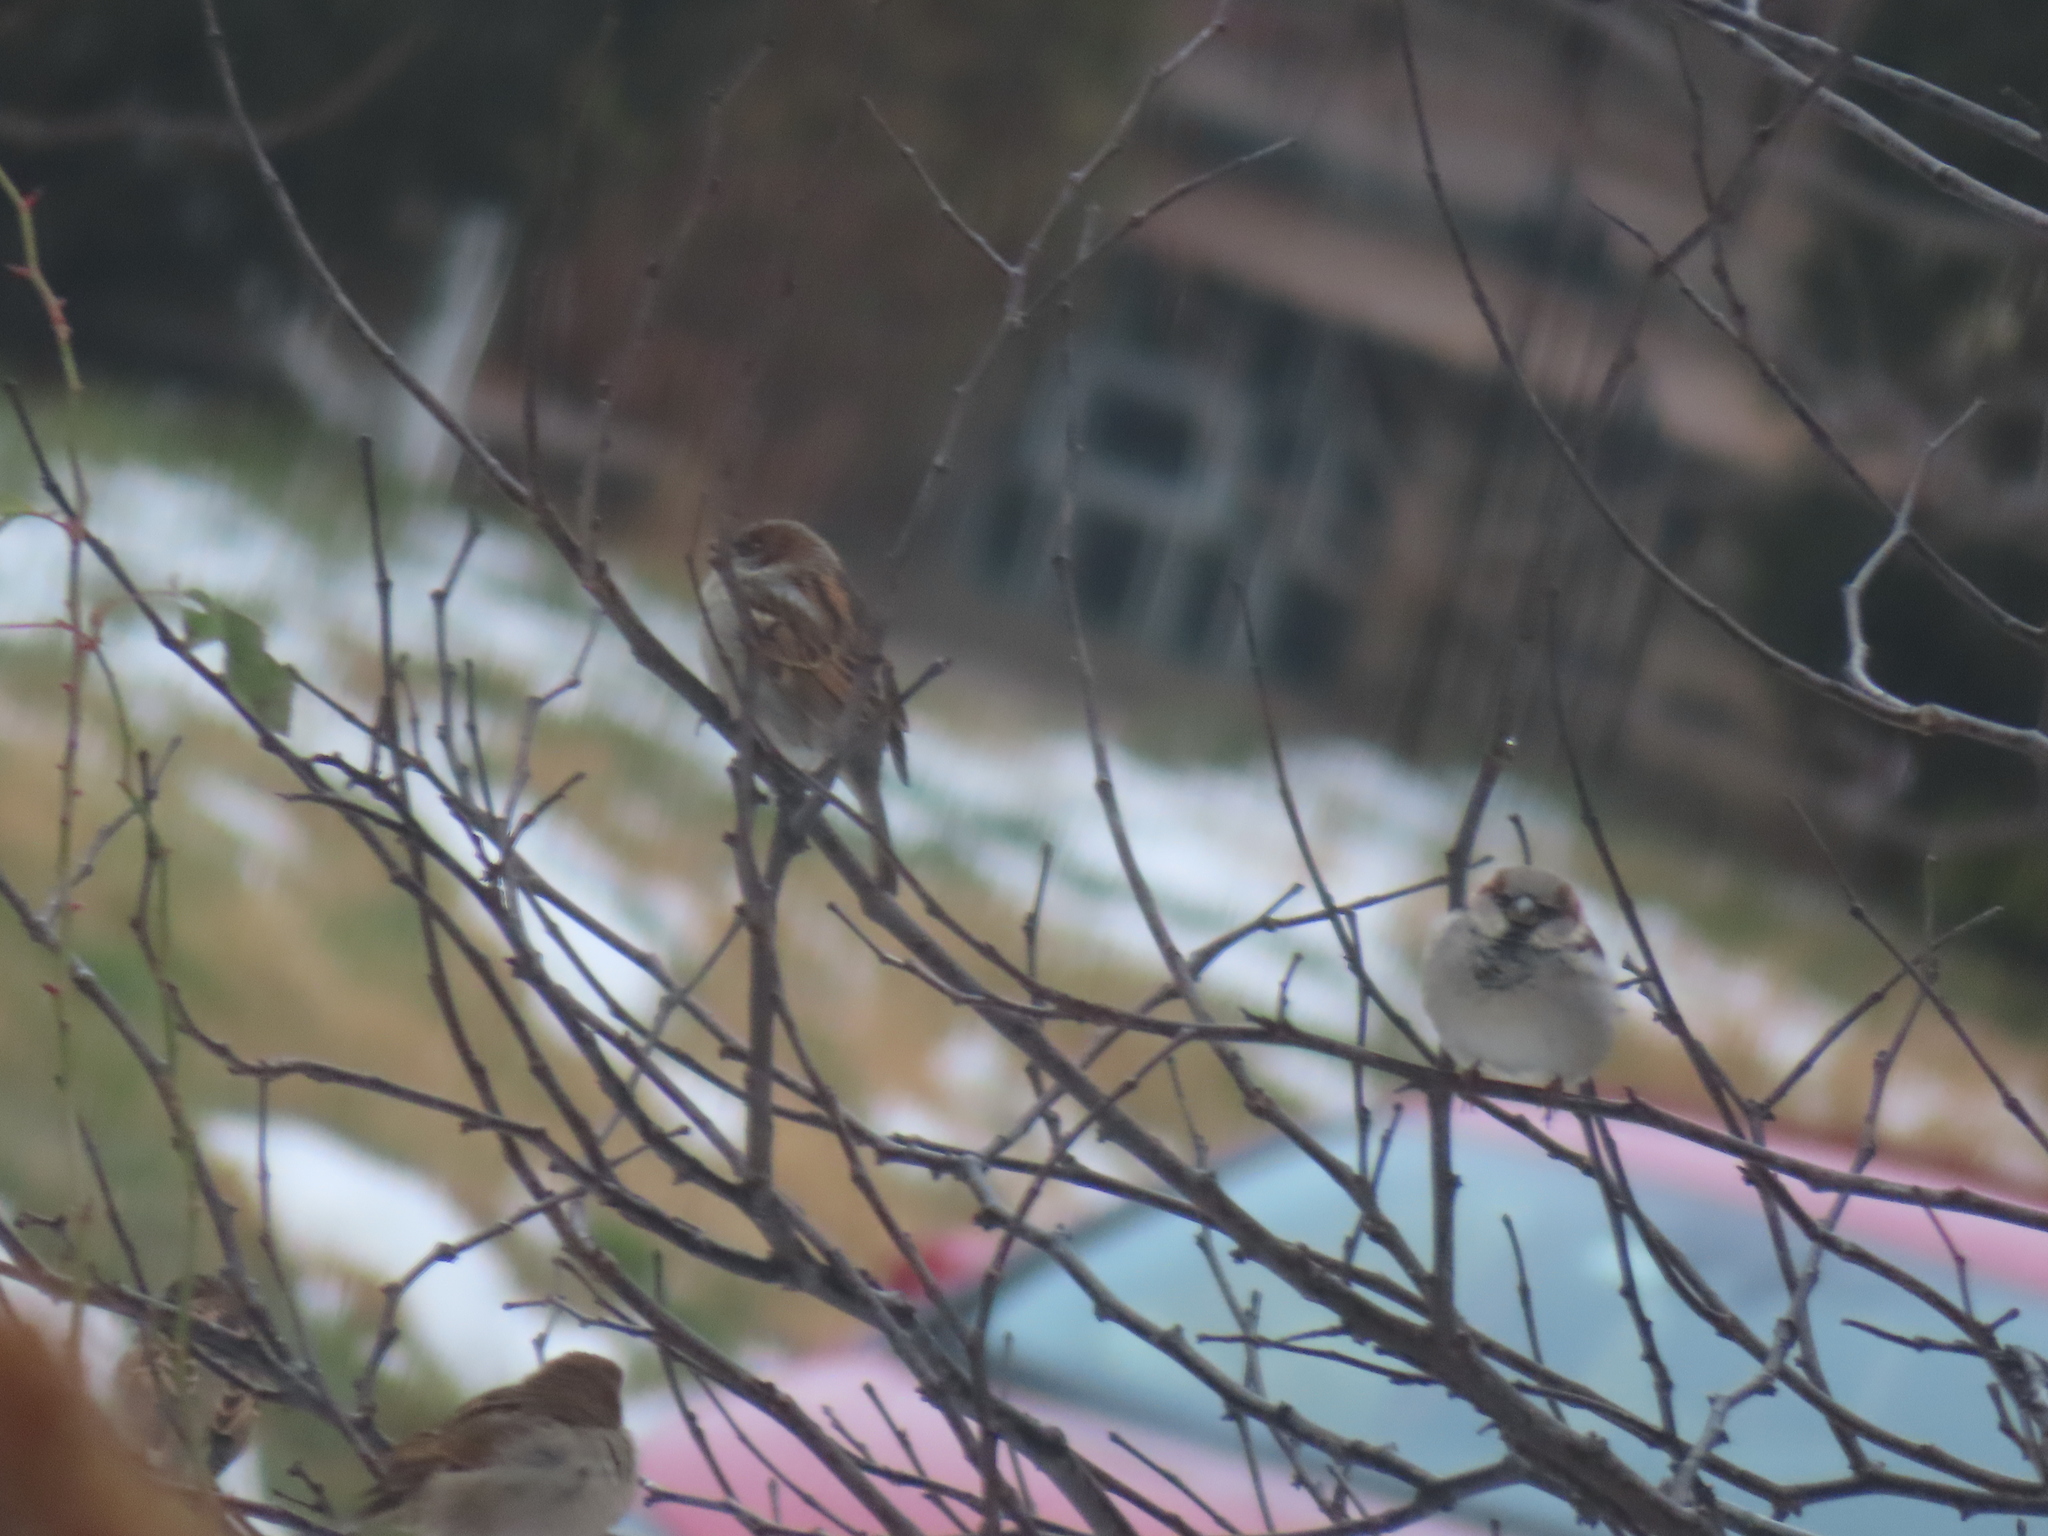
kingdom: Animalia
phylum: Chordata
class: Aves
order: Passeriformes
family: Passeridae
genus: Passer
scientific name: Passer domesticus
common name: House sparrow
